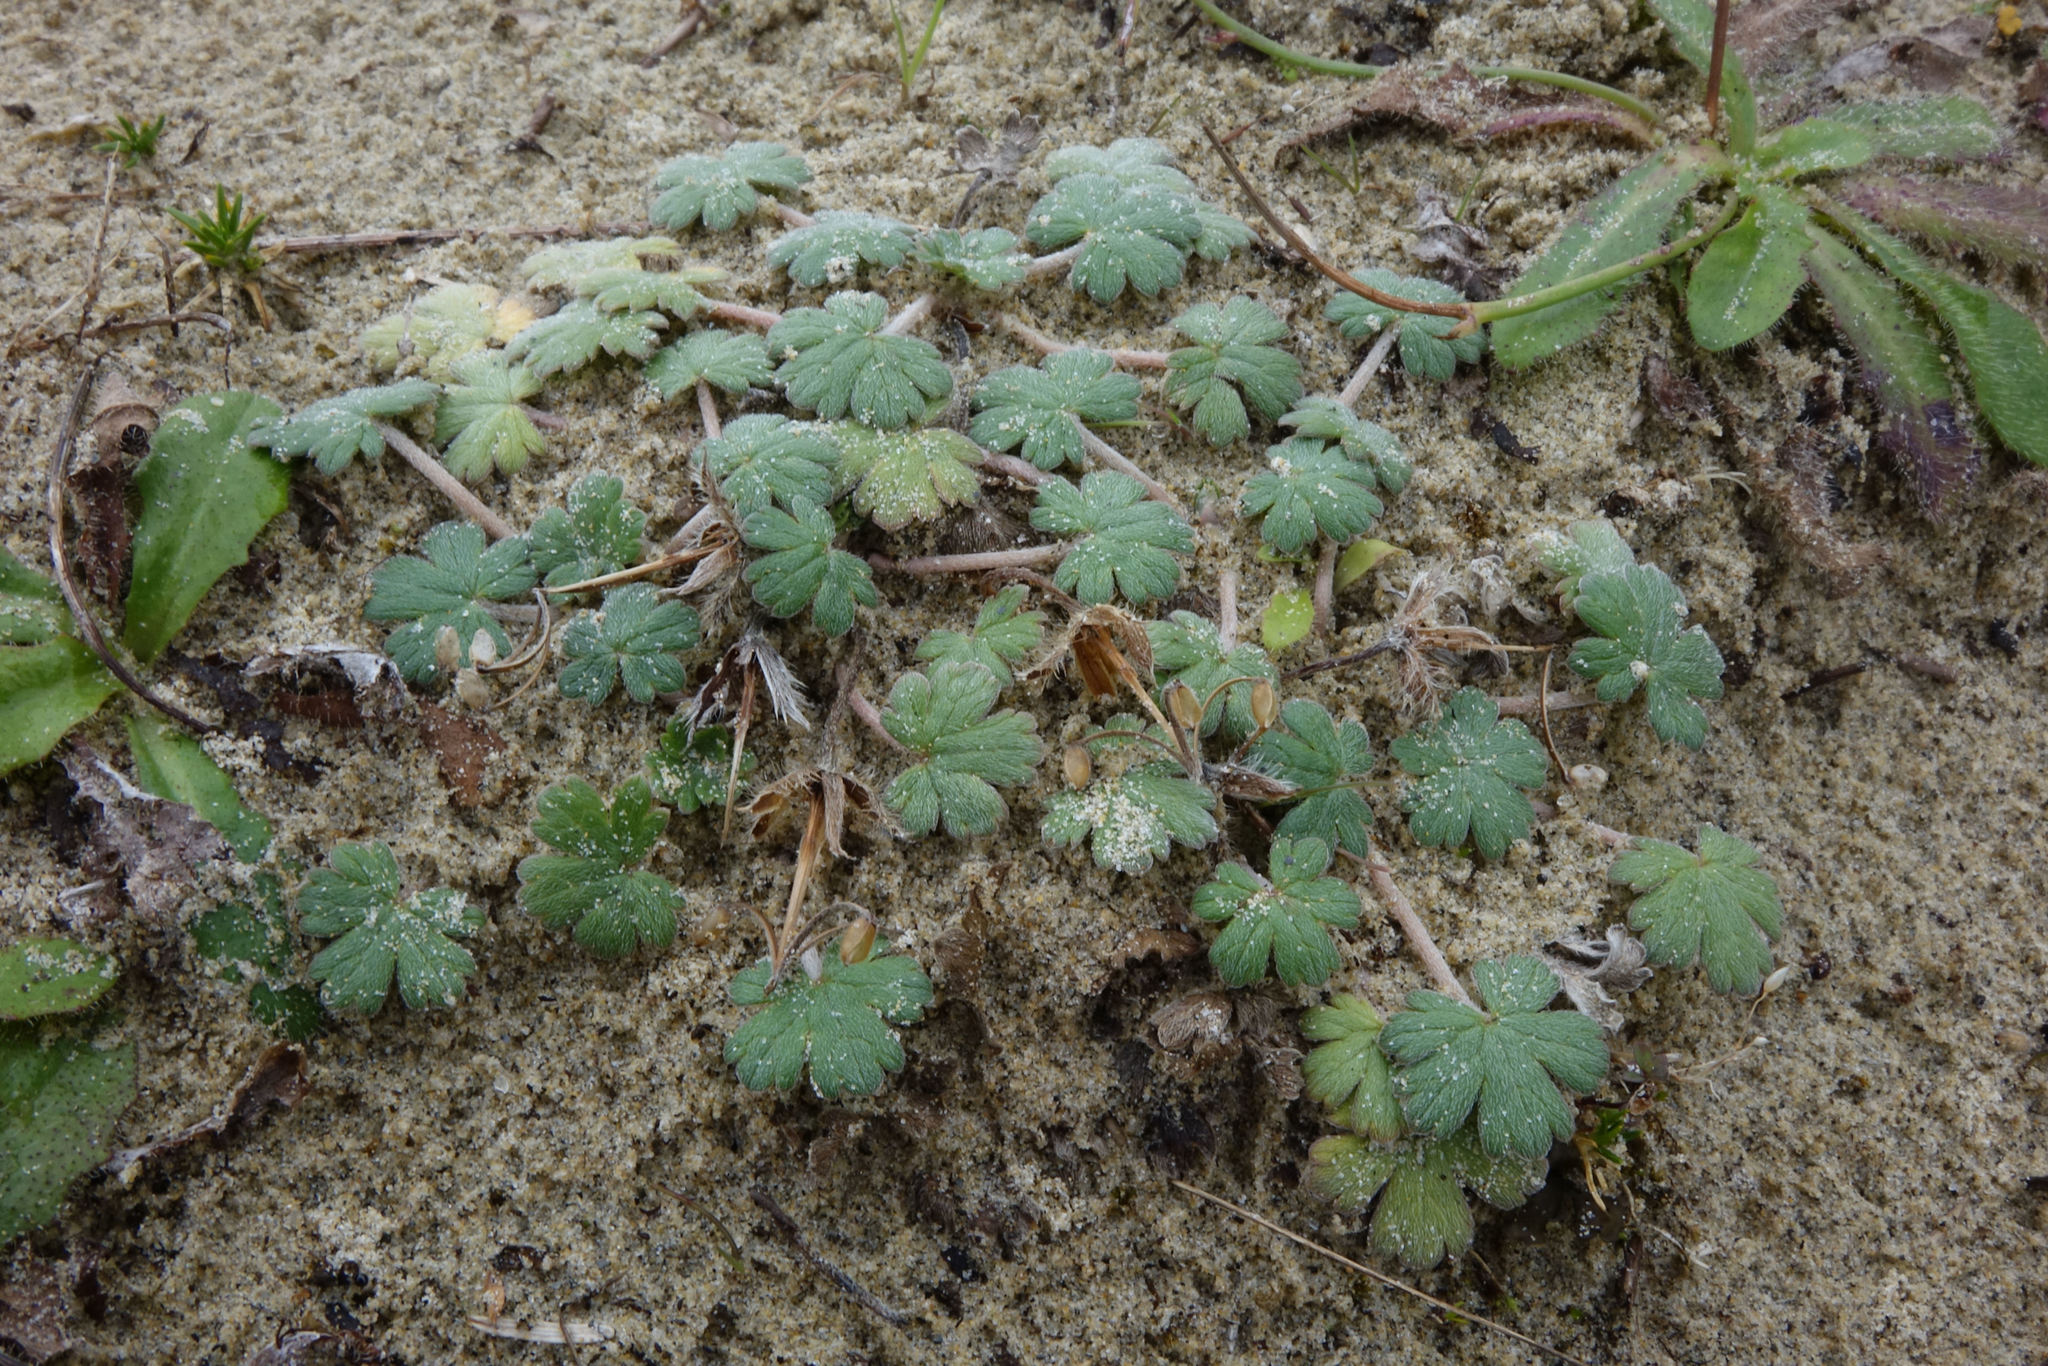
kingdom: Plantae
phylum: Tracheophyta
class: Magnoliopsida
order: Geraniales
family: Geraniaceae
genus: Geranium
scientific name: Geranium brevicaule
